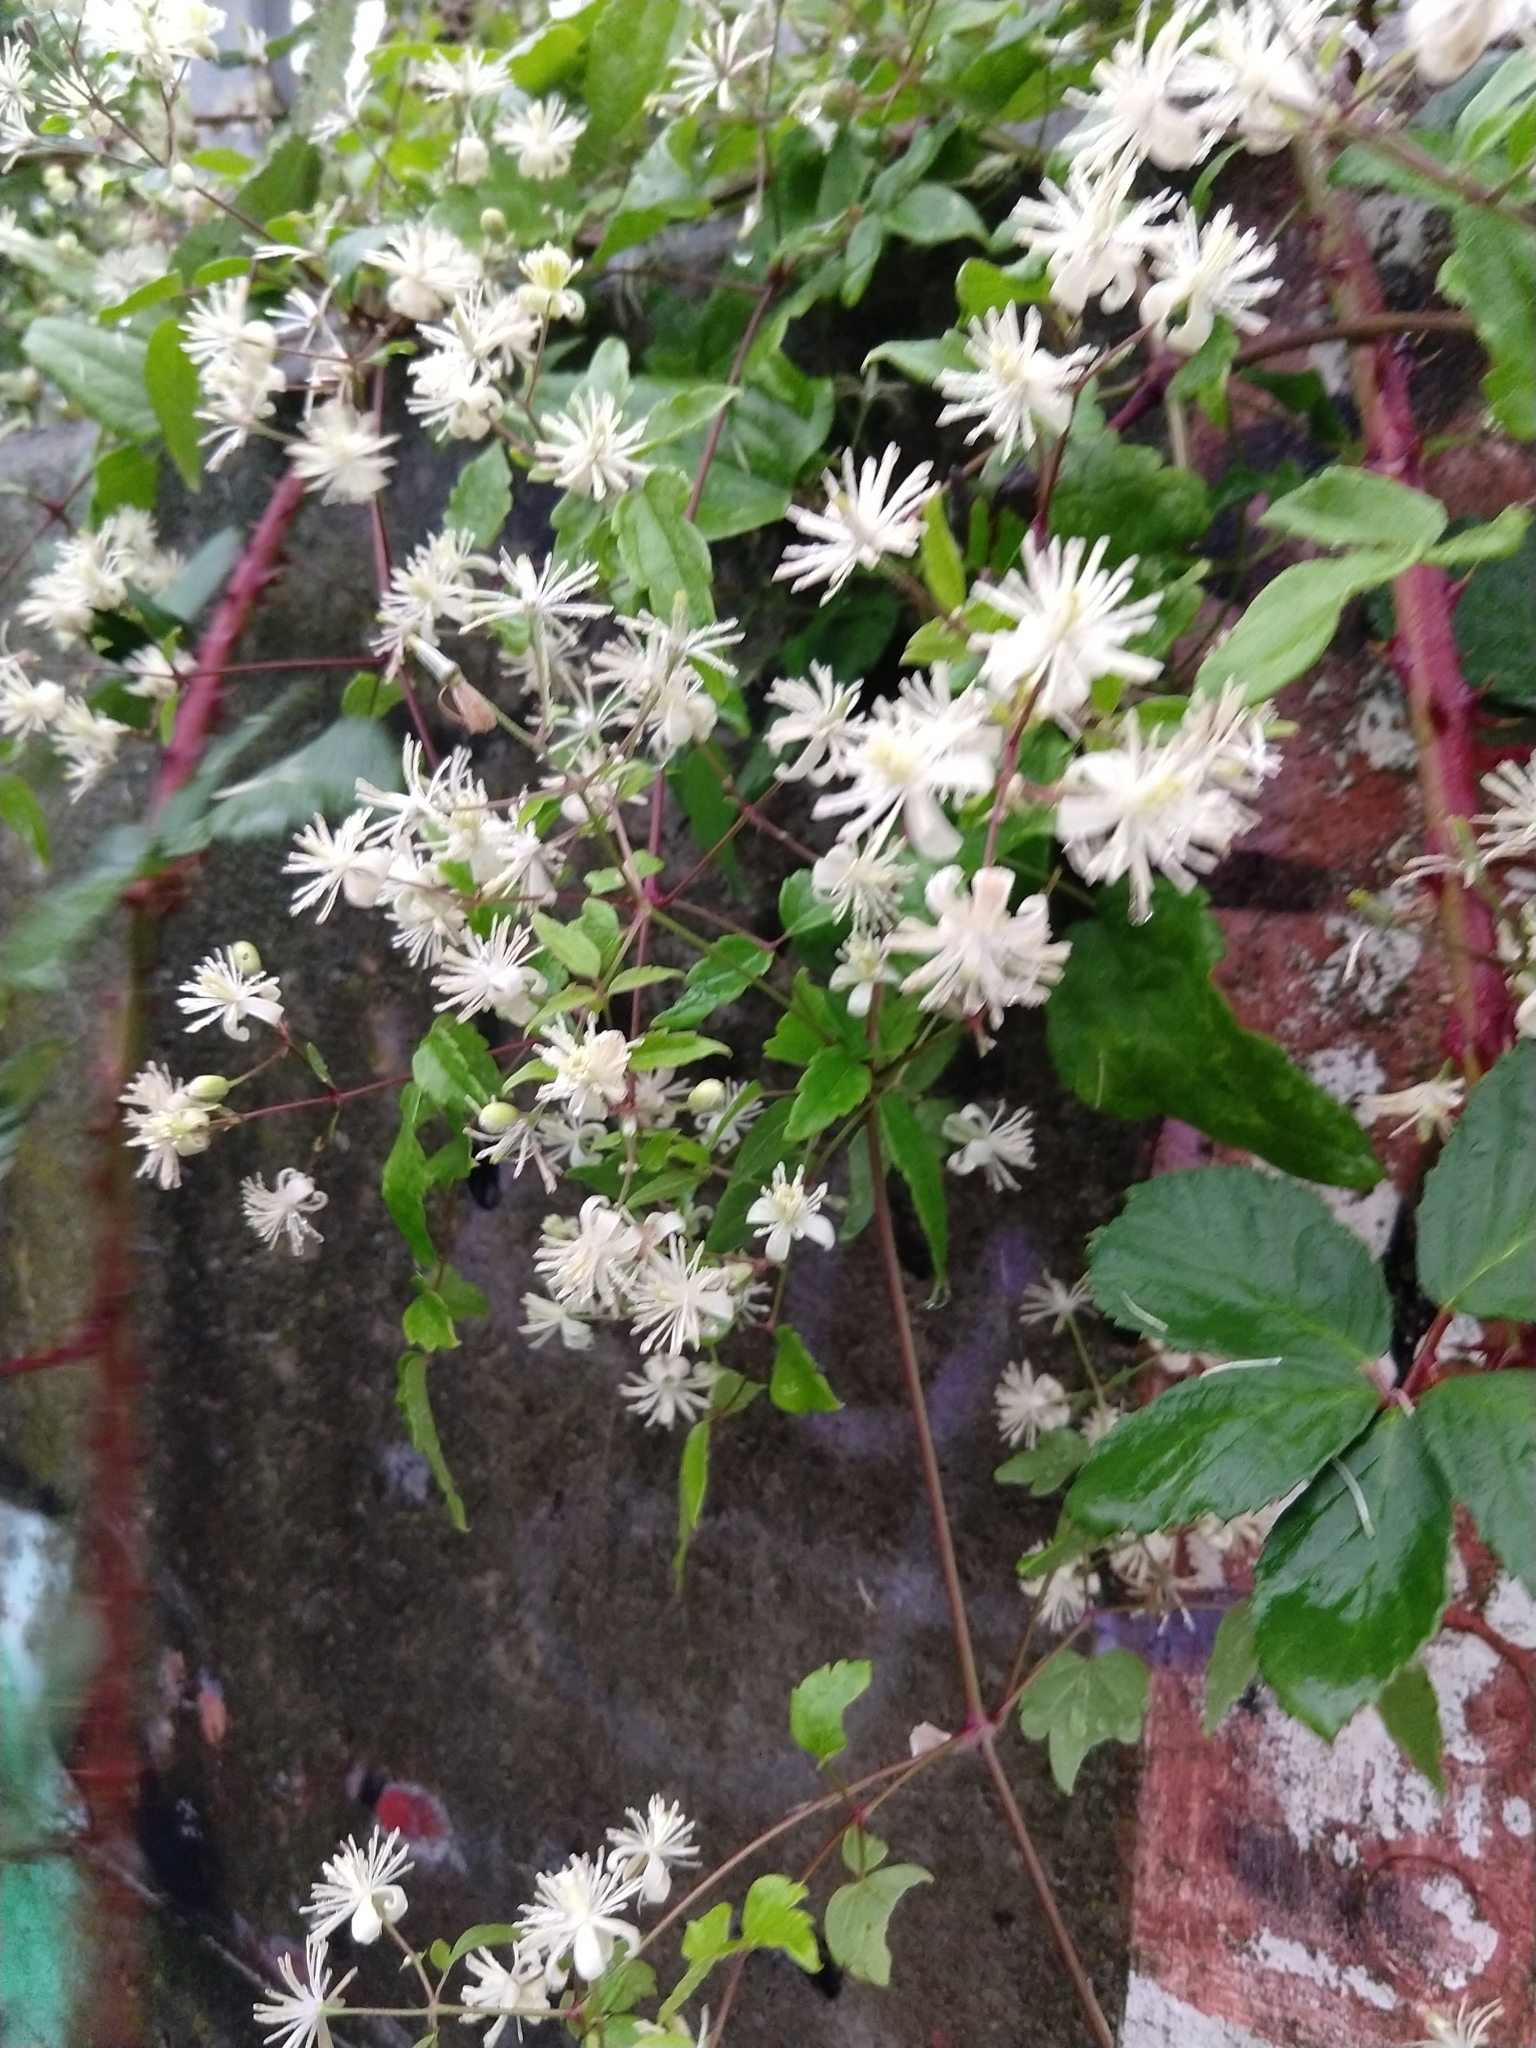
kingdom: Plantae
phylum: Tracheophyta
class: Magnoliopsida
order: Ranunculales
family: Ranunculaceae
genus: Clematis
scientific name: Clematis vitalba
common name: Evergreen clematis
